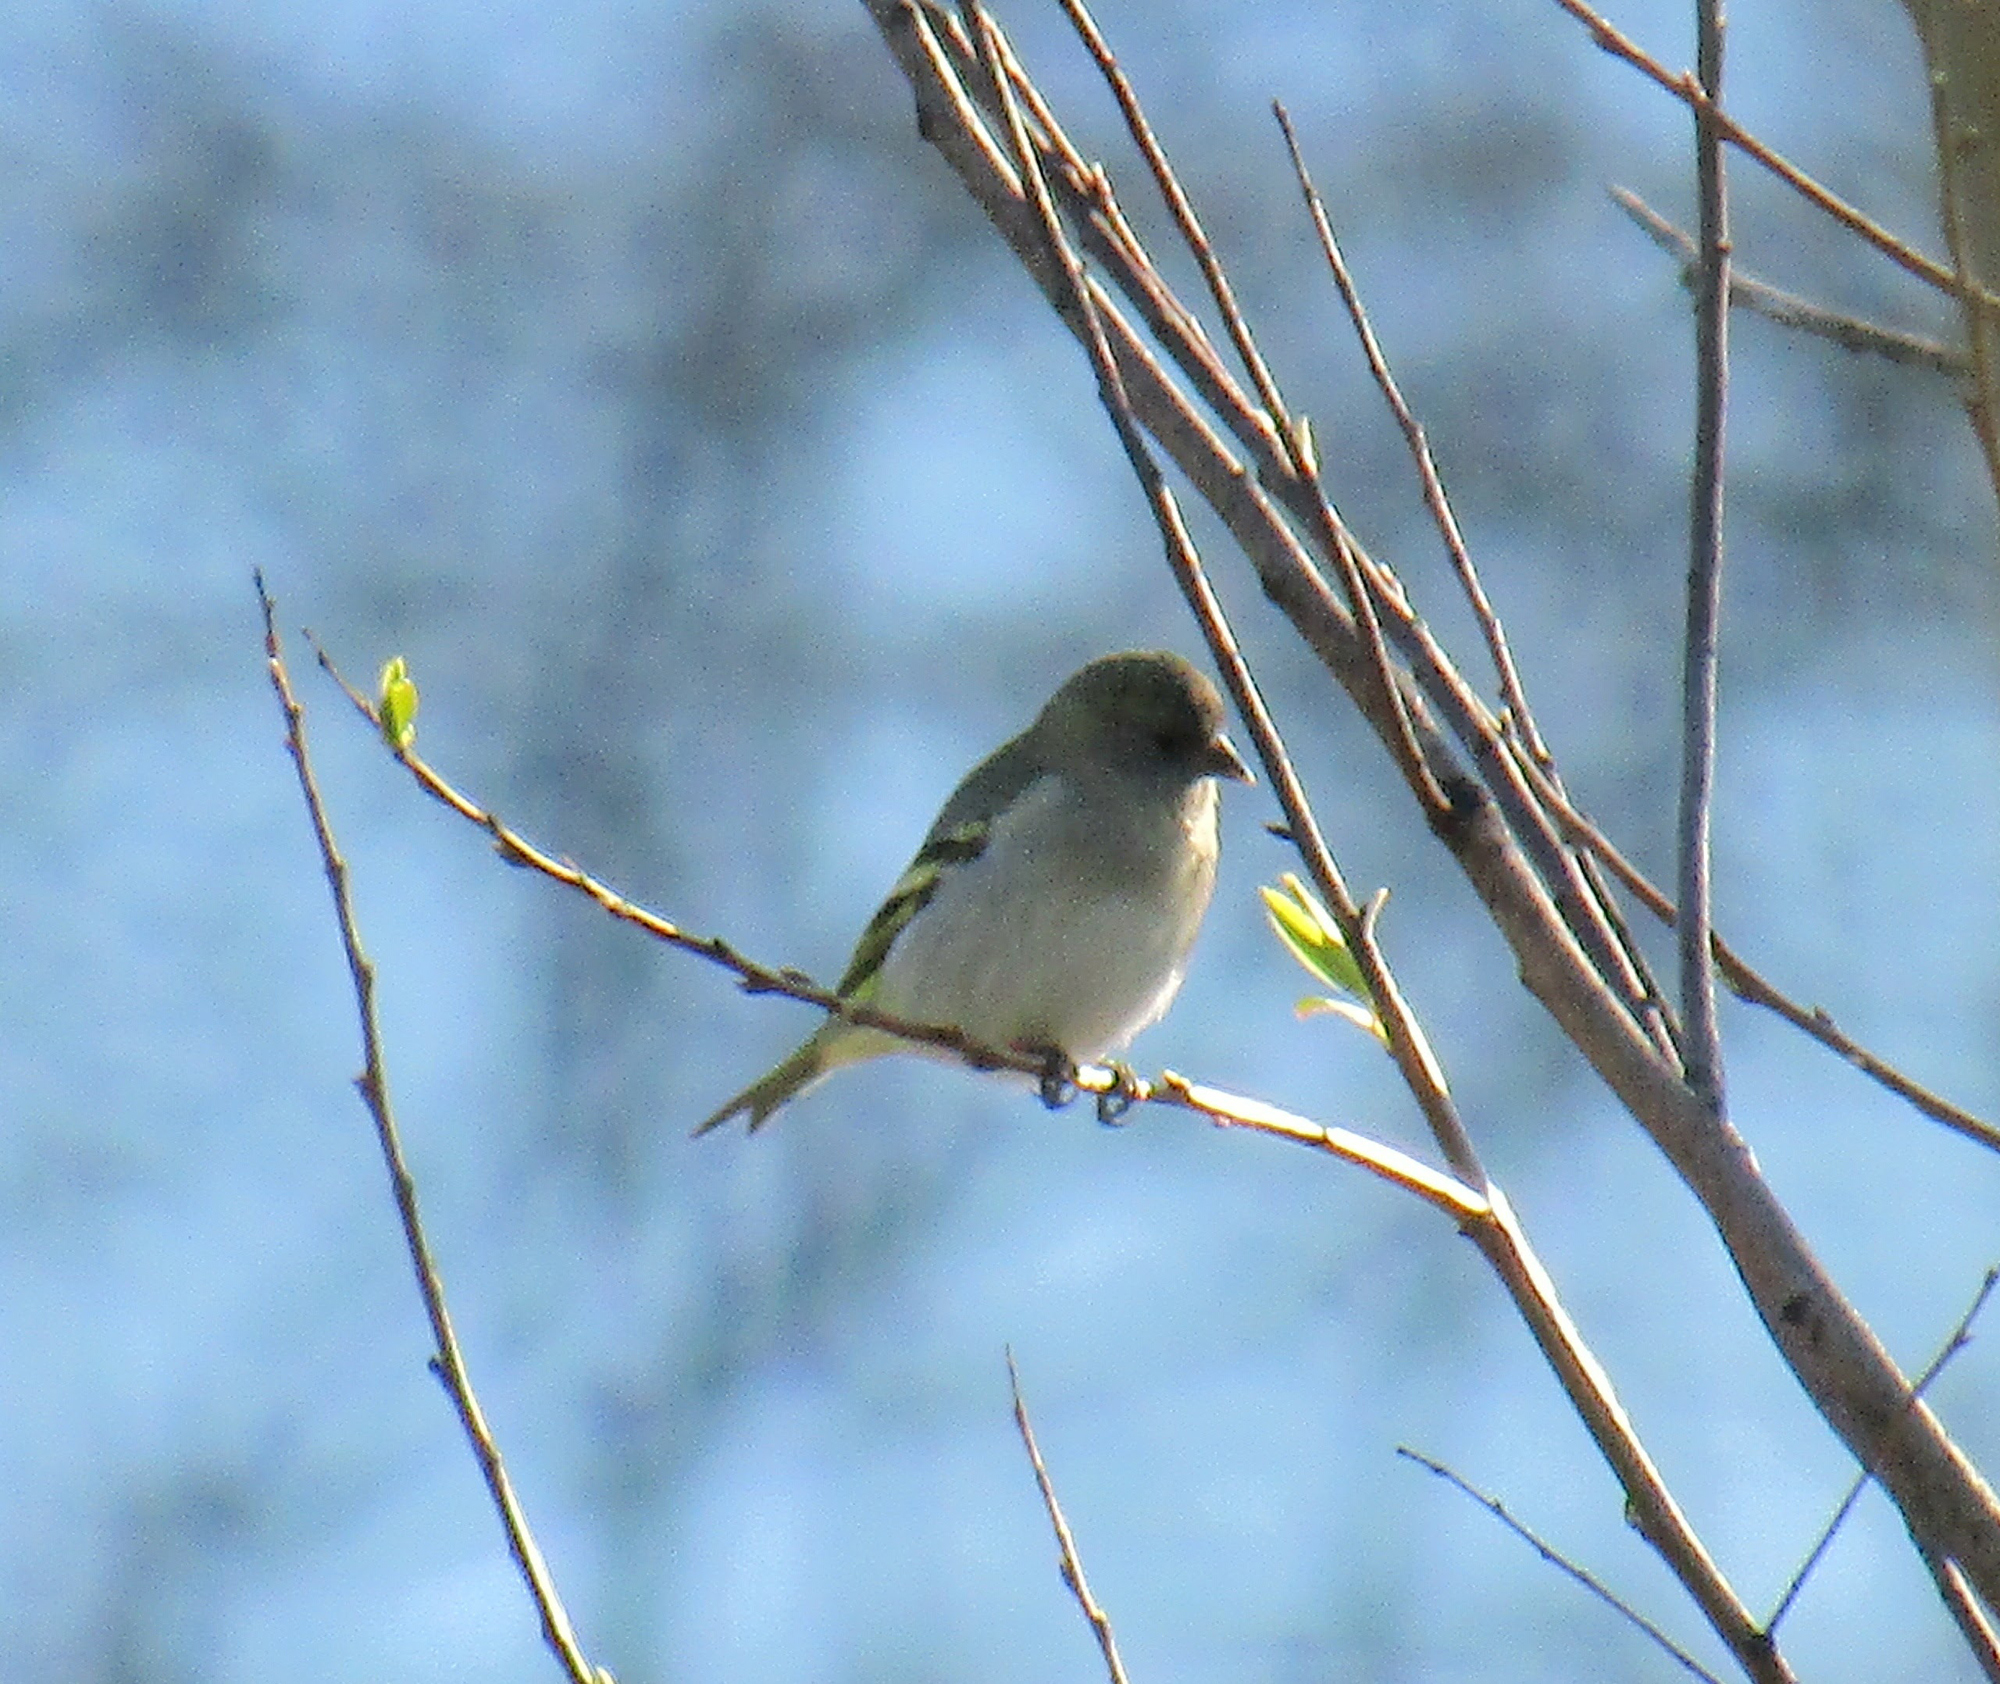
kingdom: Animalia
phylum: Chordata
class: Aves
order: Passeriformes
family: Fringillidae
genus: Spinus
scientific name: Spinus magellanicus
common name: Hooded siskin
